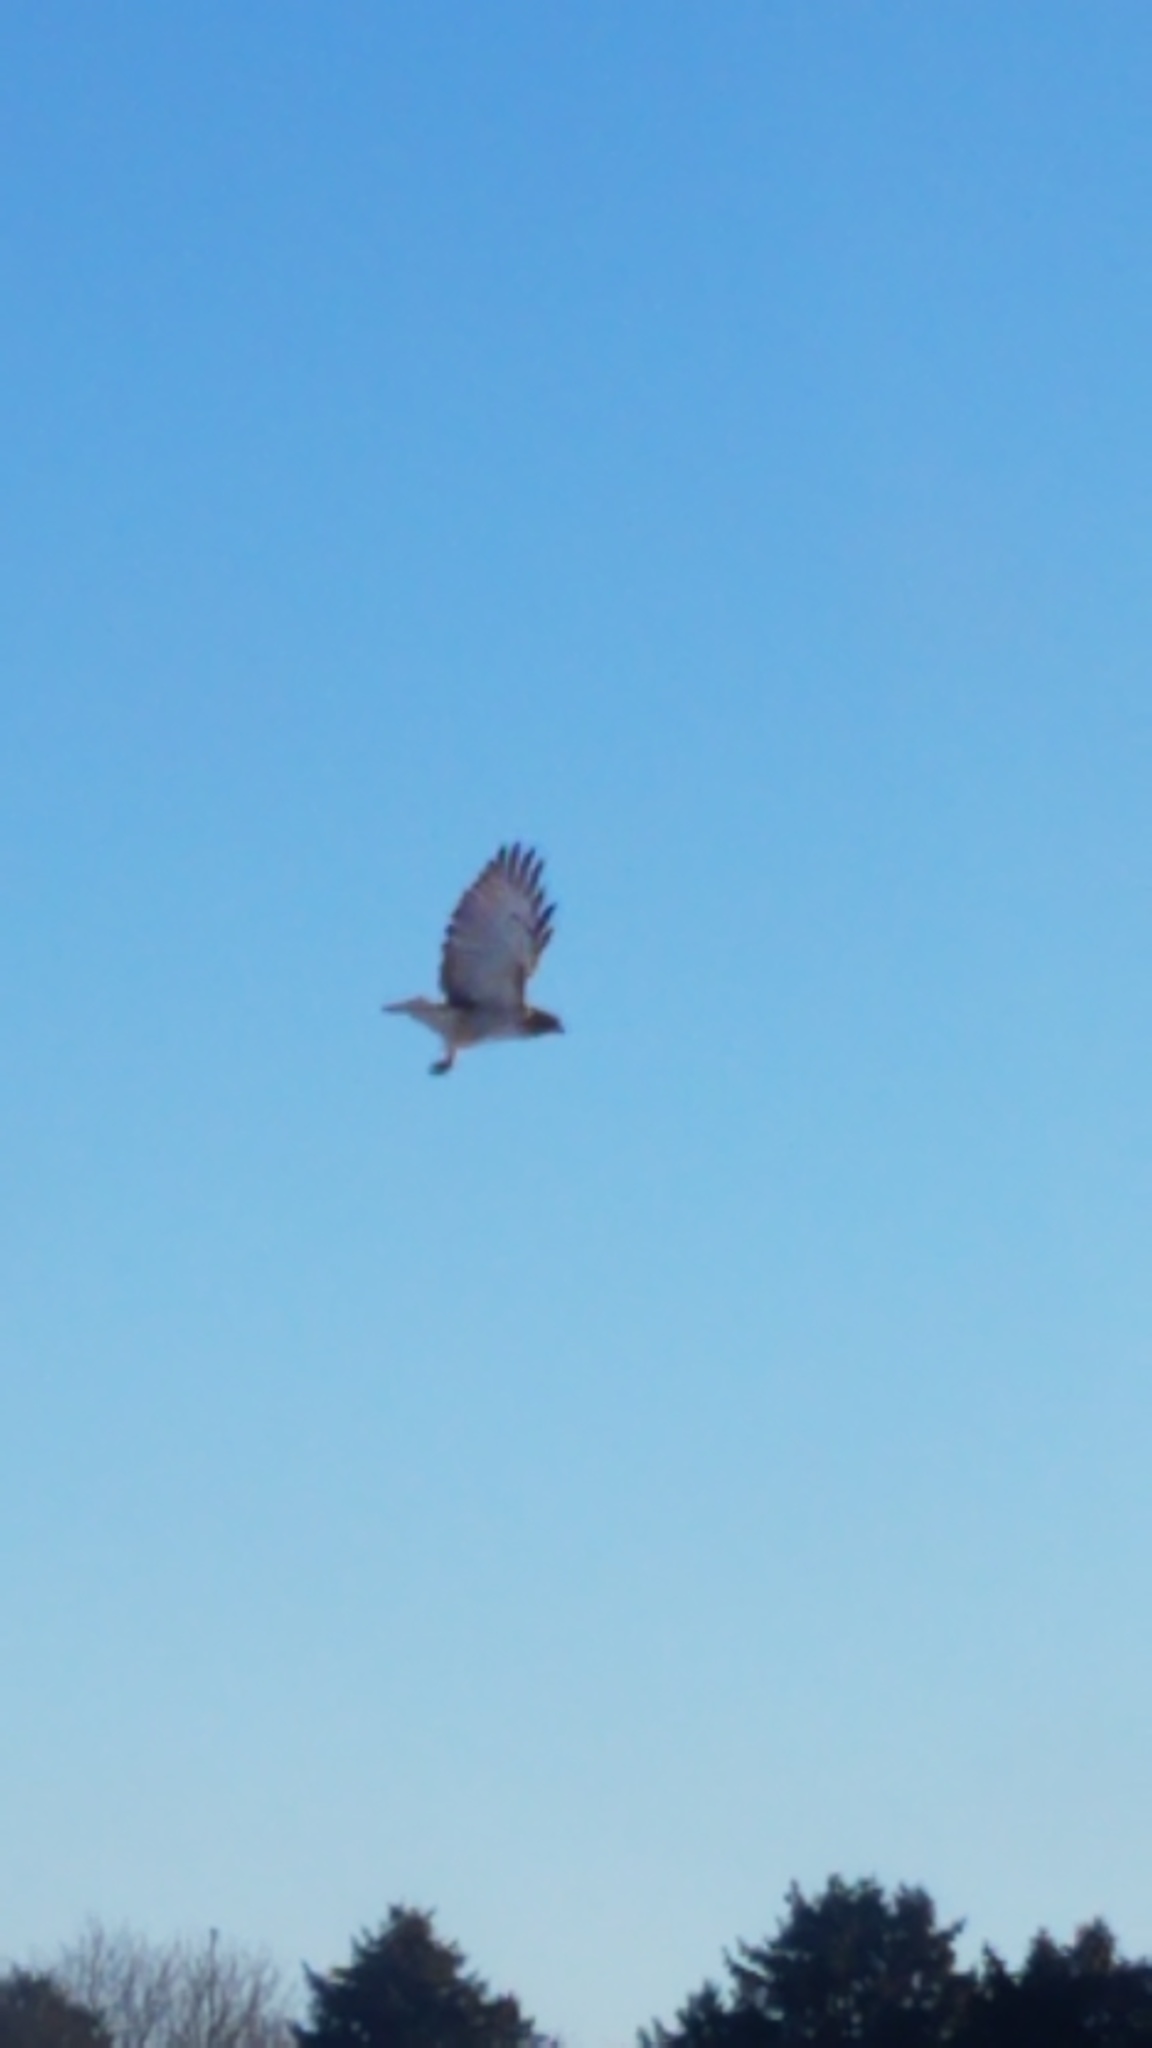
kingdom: Animalia
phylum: Chordata
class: Aves
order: Accipitriformes
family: Accipitridae
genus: Buteo
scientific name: Buteo jamaicensis
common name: Red-tailed hawk
